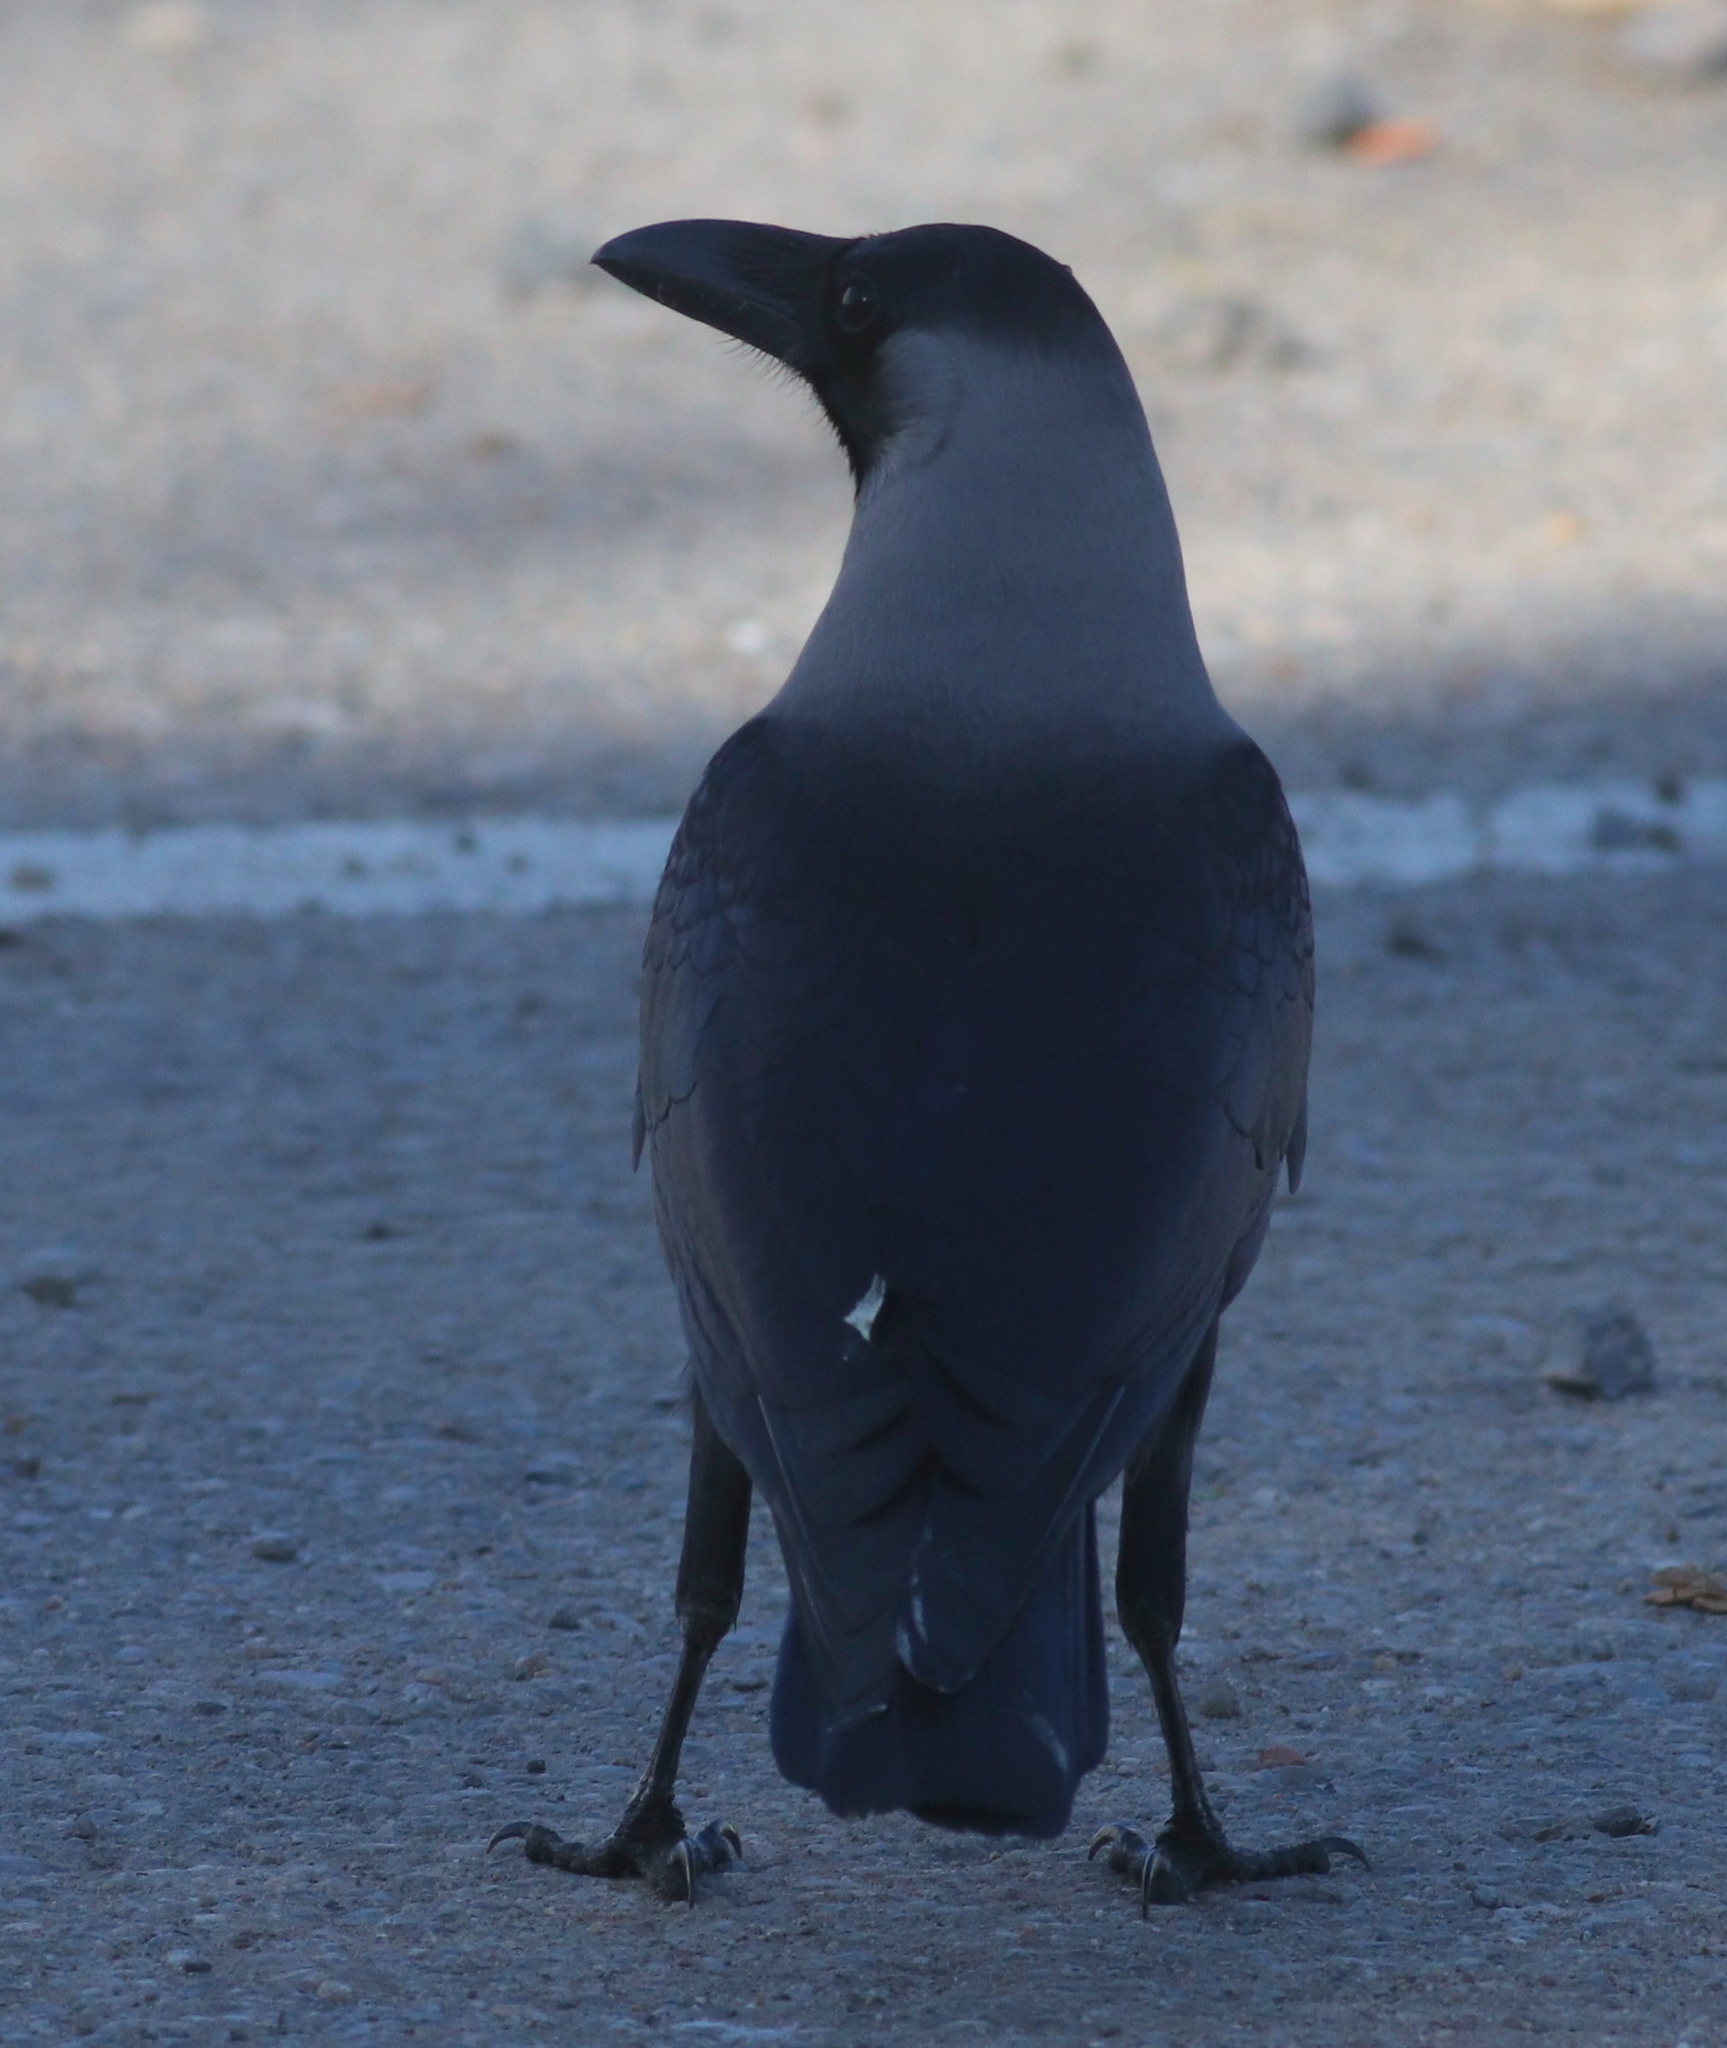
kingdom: Animalia
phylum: Chordata
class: Aves
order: Passeriformes
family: Corvidae
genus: Corvus
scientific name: Corvus splendens
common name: House crow
